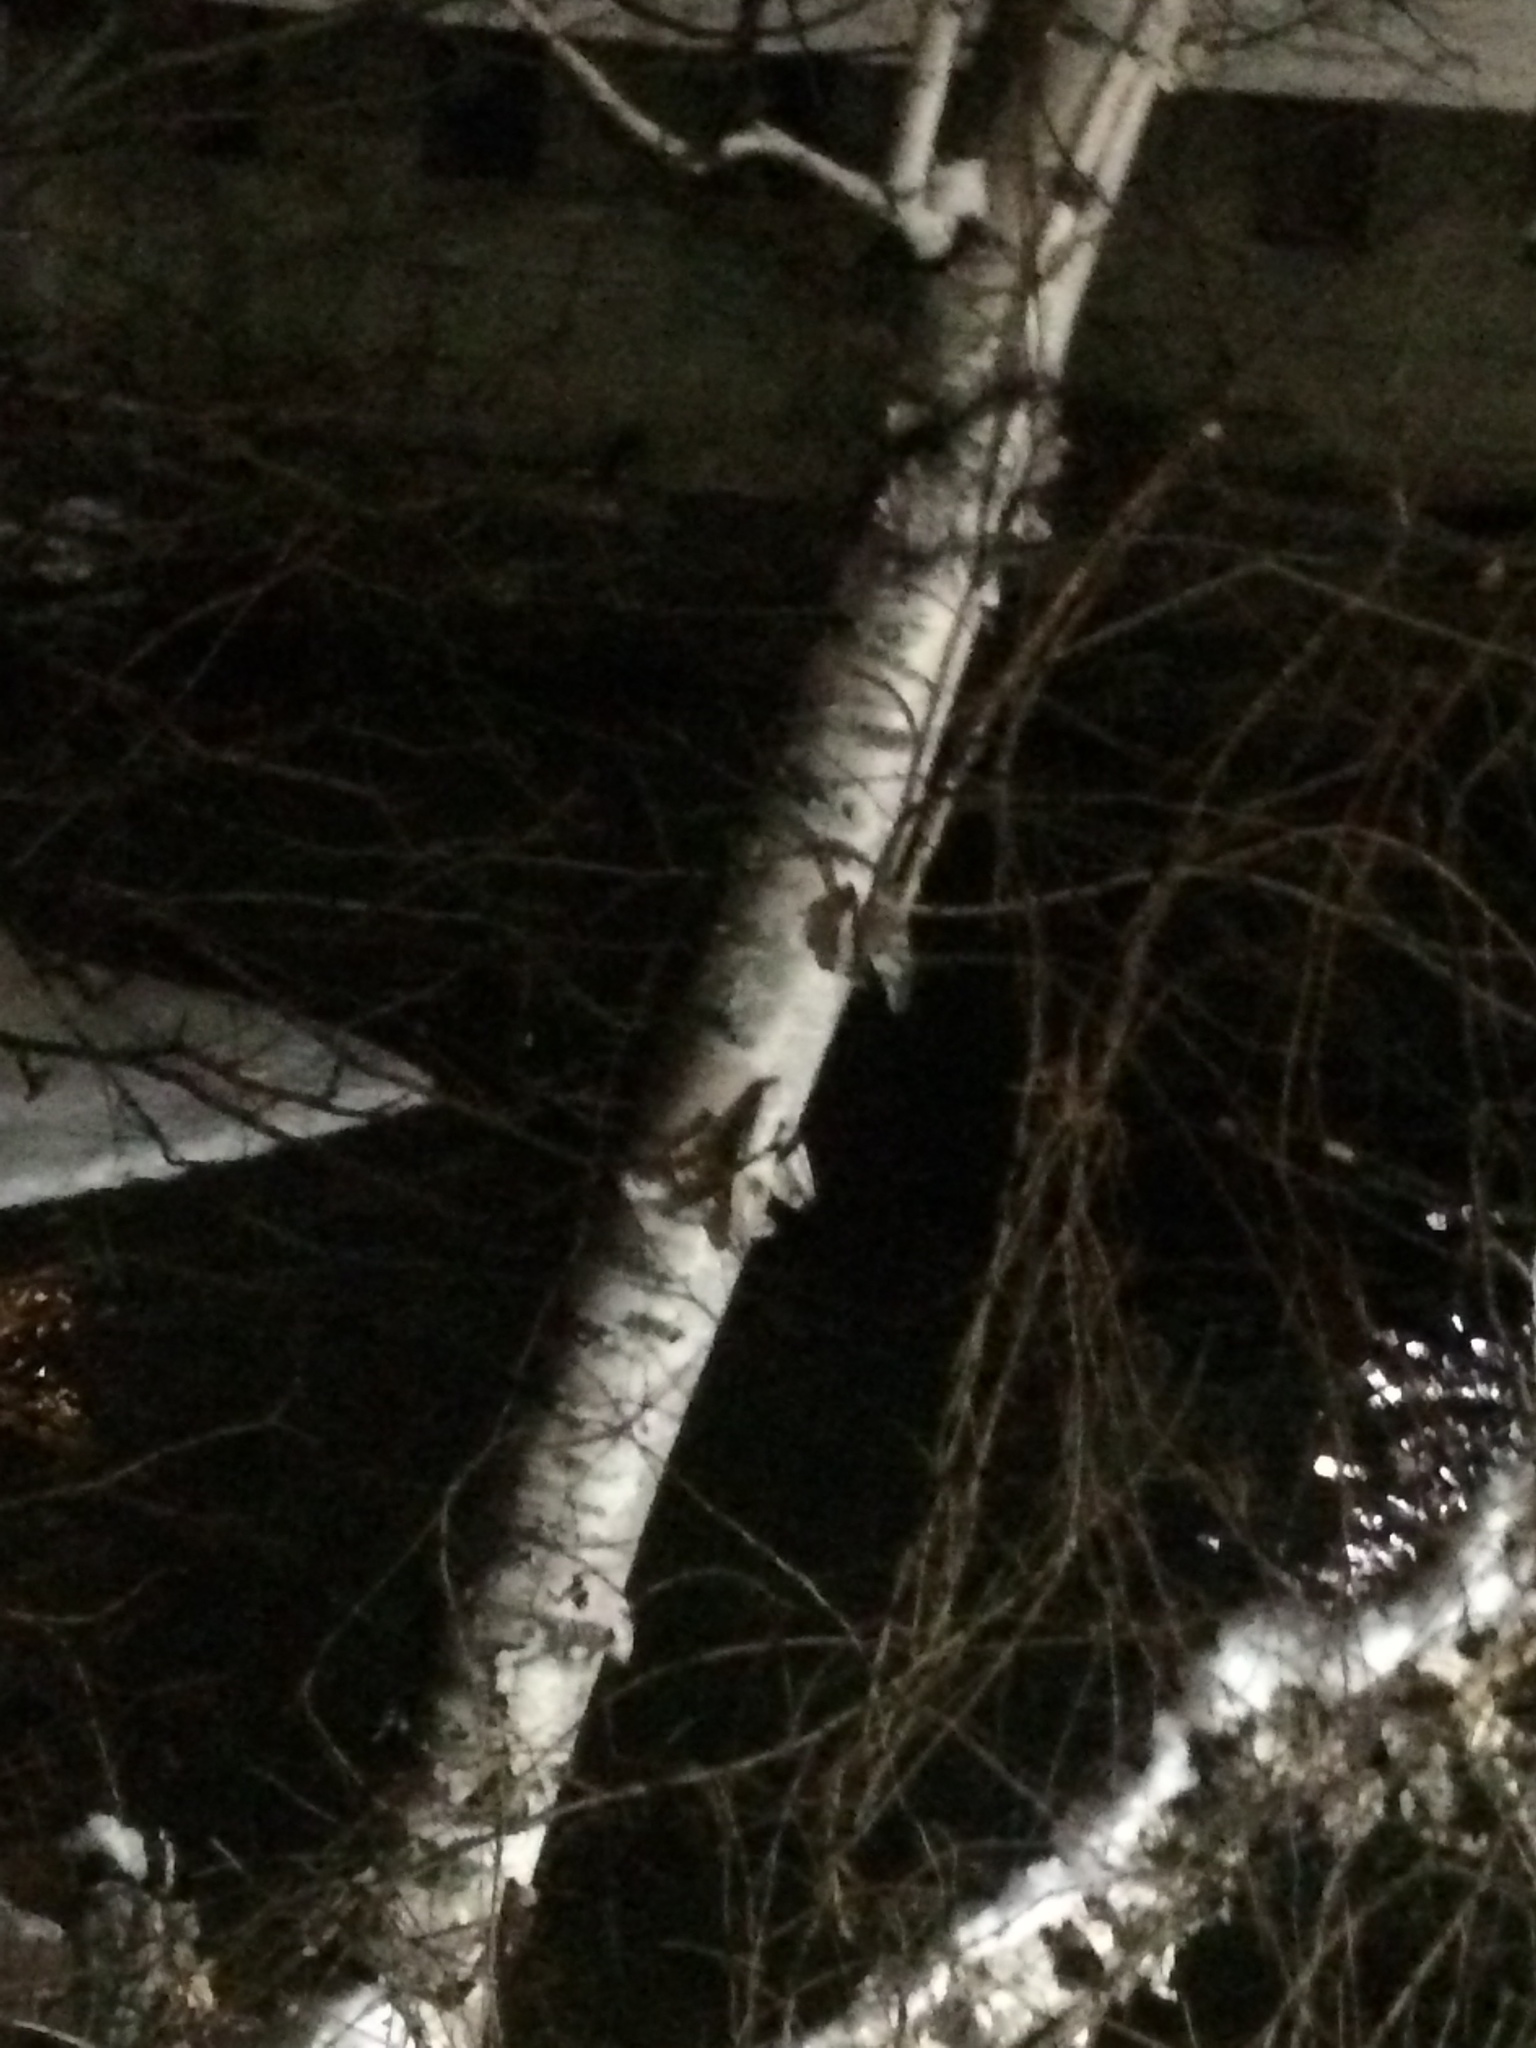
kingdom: Plantae
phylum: Tracheophyta
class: Magnoliopsida
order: Fagales
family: Betulaceae
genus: Betula
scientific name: Betula papyrifera
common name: Paper birch
